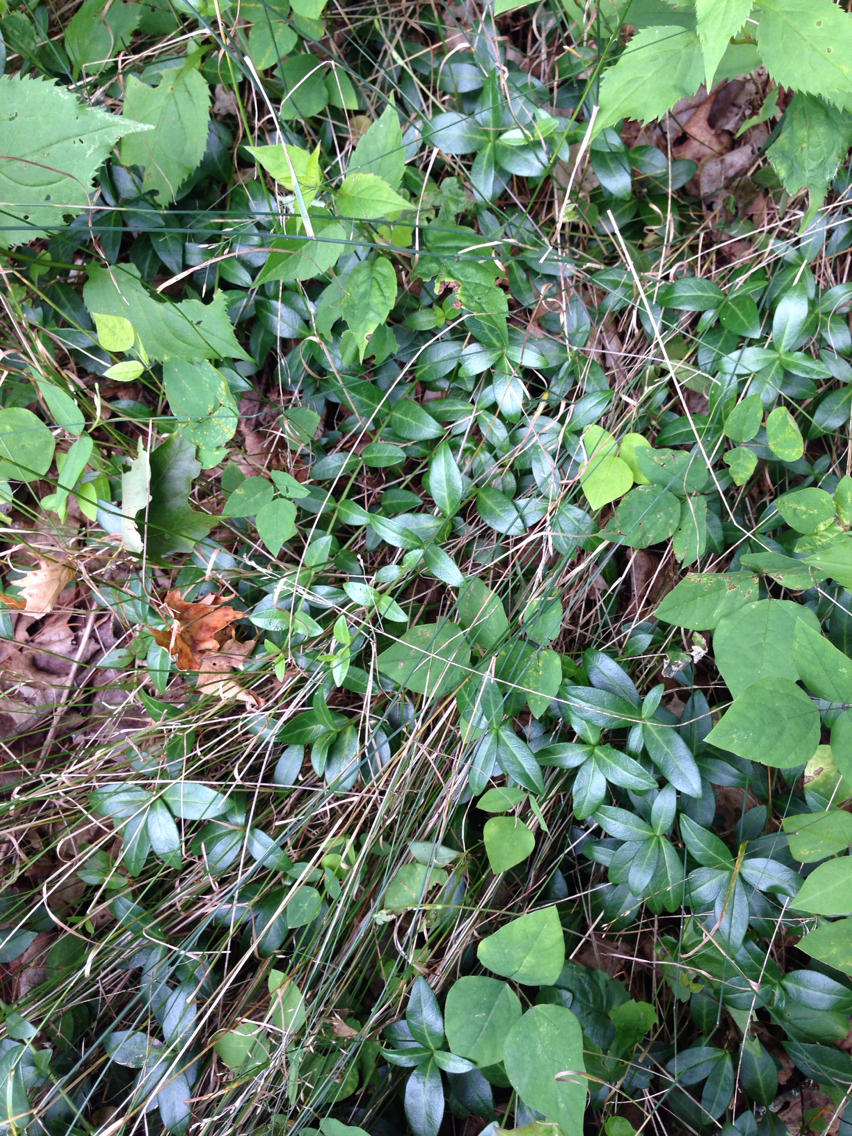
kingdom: Plantae
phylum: Tracheophyta
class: Magnoliopsida
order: Gentianales
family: Apocynaceae
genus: Vinca
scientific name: Vinca minor
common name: Lesser periwinkle
